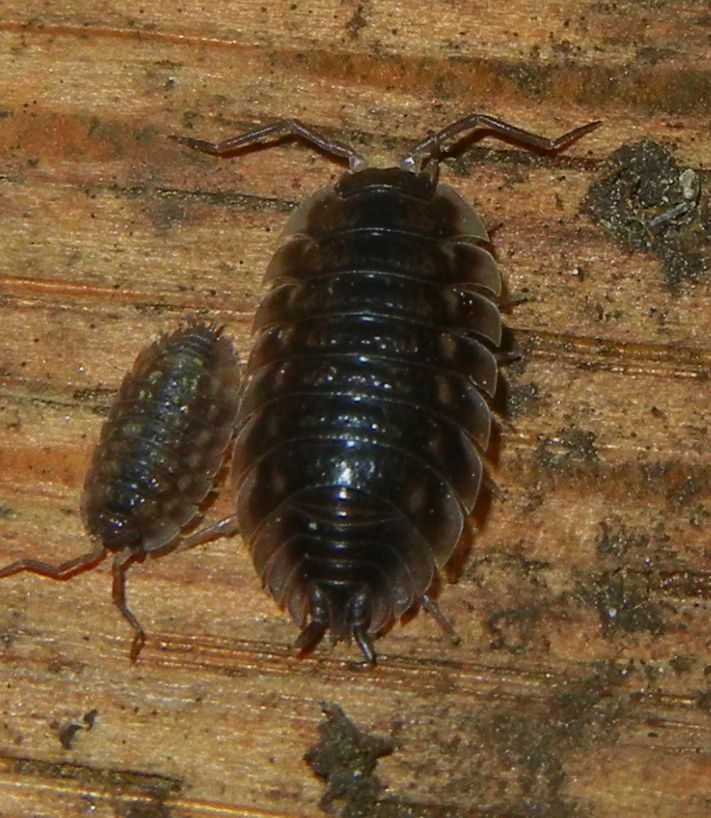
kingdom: Animalia
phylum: Arthropoda
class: Malacostraca
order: Isopoda
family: Oniscidae
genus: Oniscus
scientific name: Oniscus asellus
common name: Common shiny woodlouse
